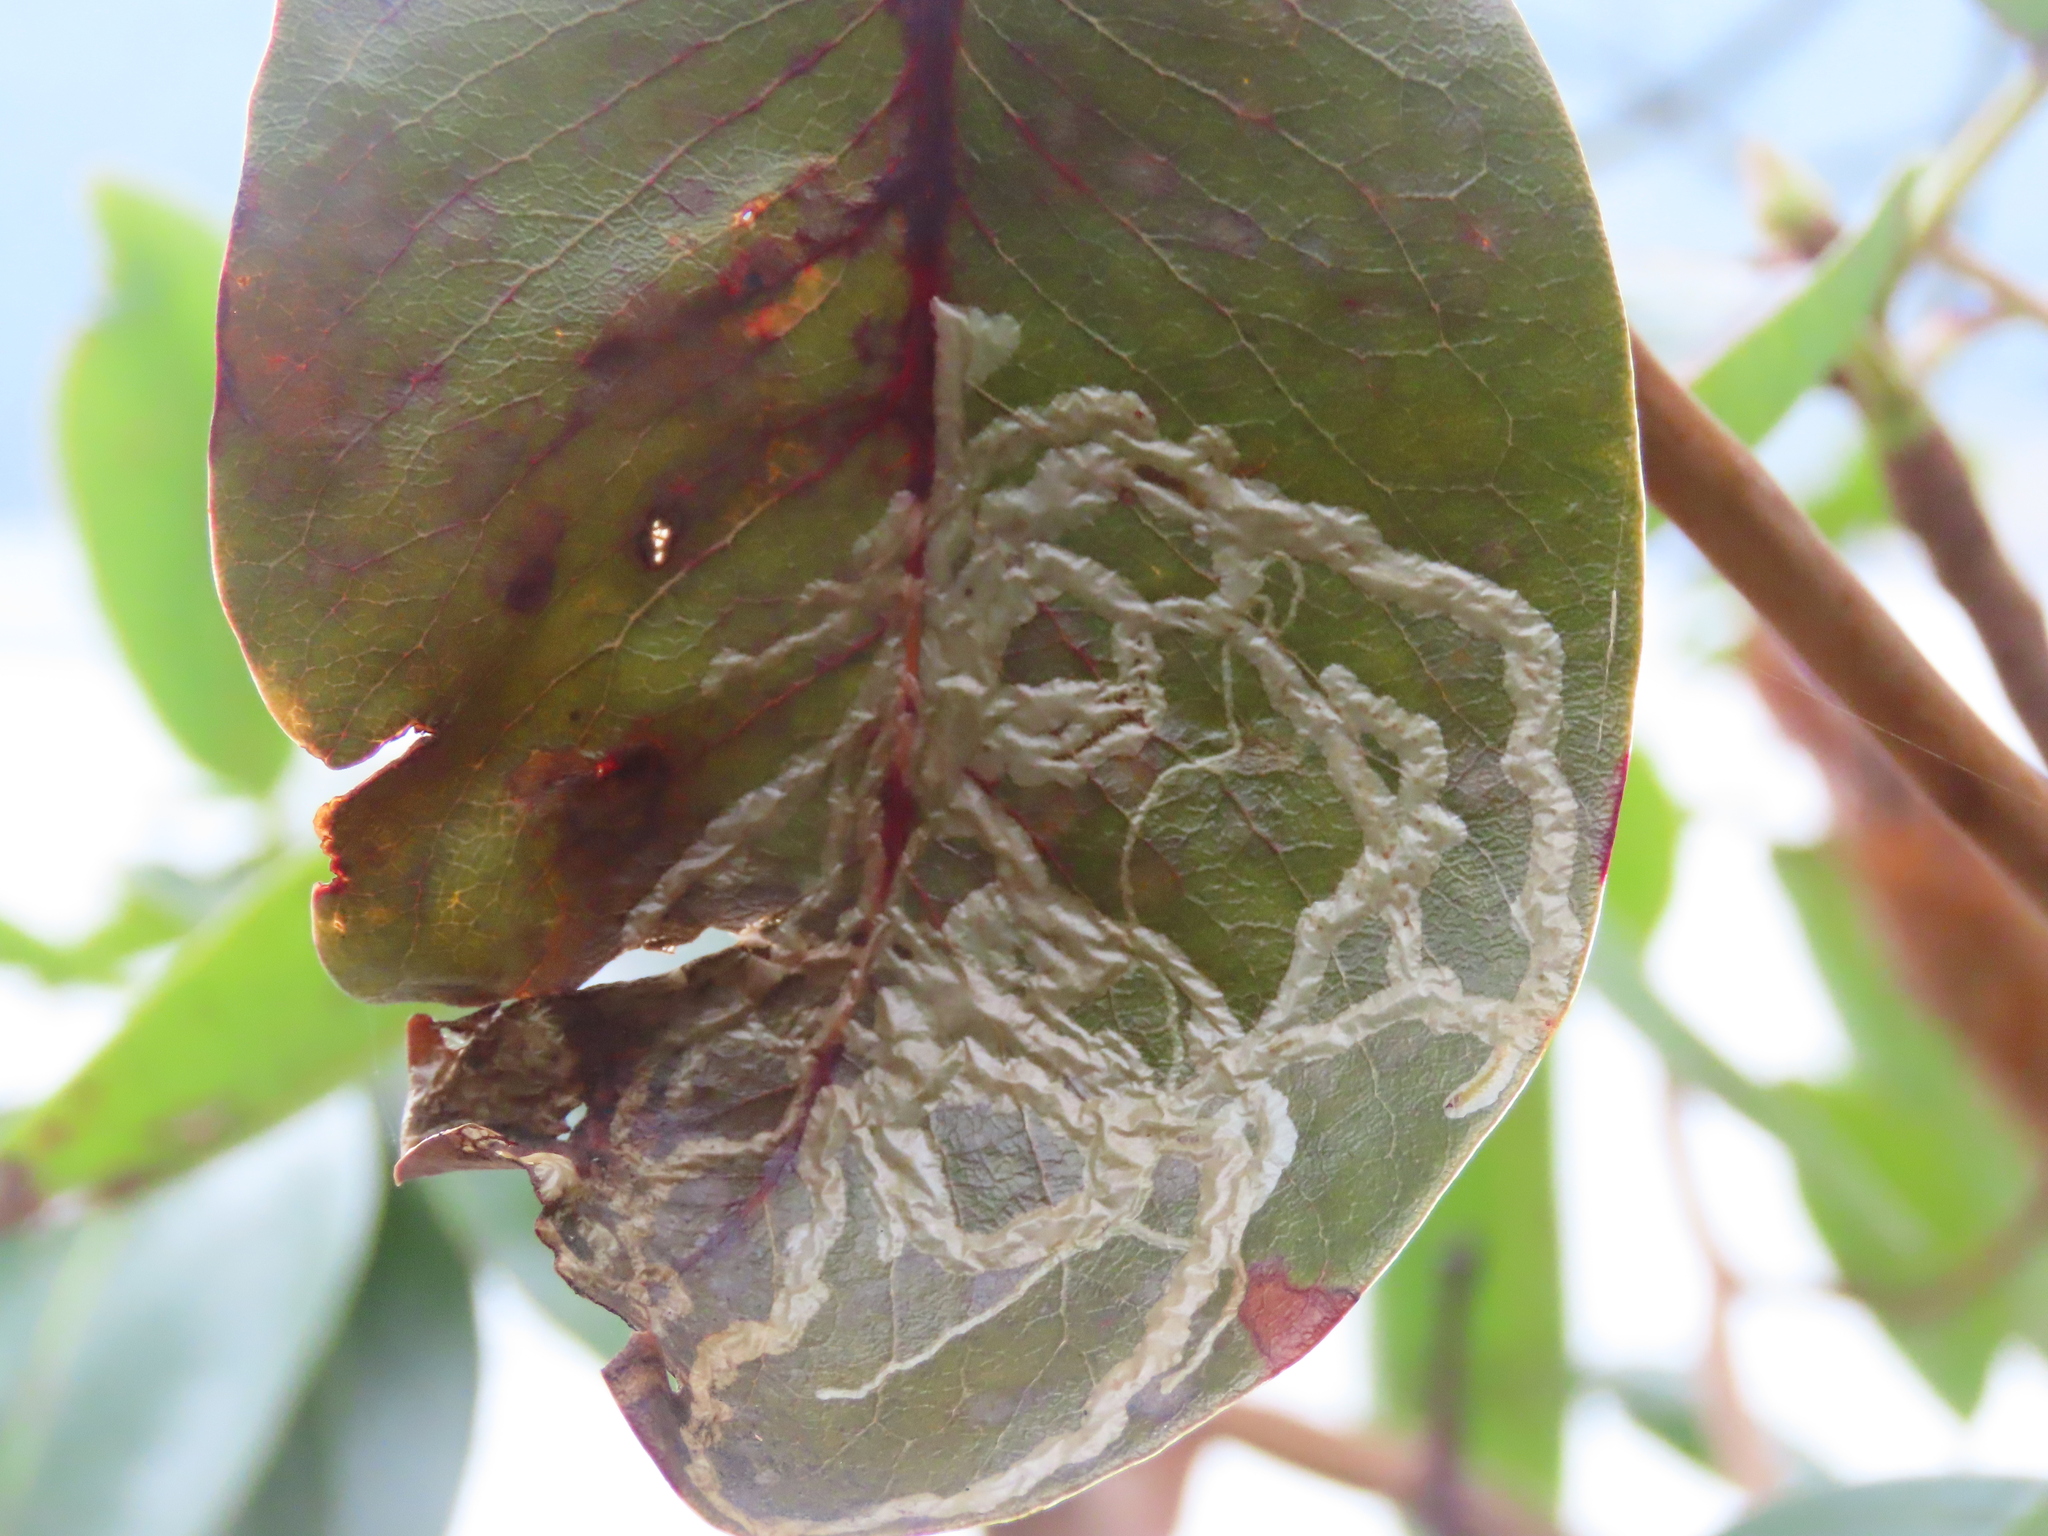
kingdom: Animalia
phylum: Arthropoda
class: Insecta
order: Lepidoptera
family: Gracillariidae
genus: Marmara
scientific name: Marmara arbutiella
